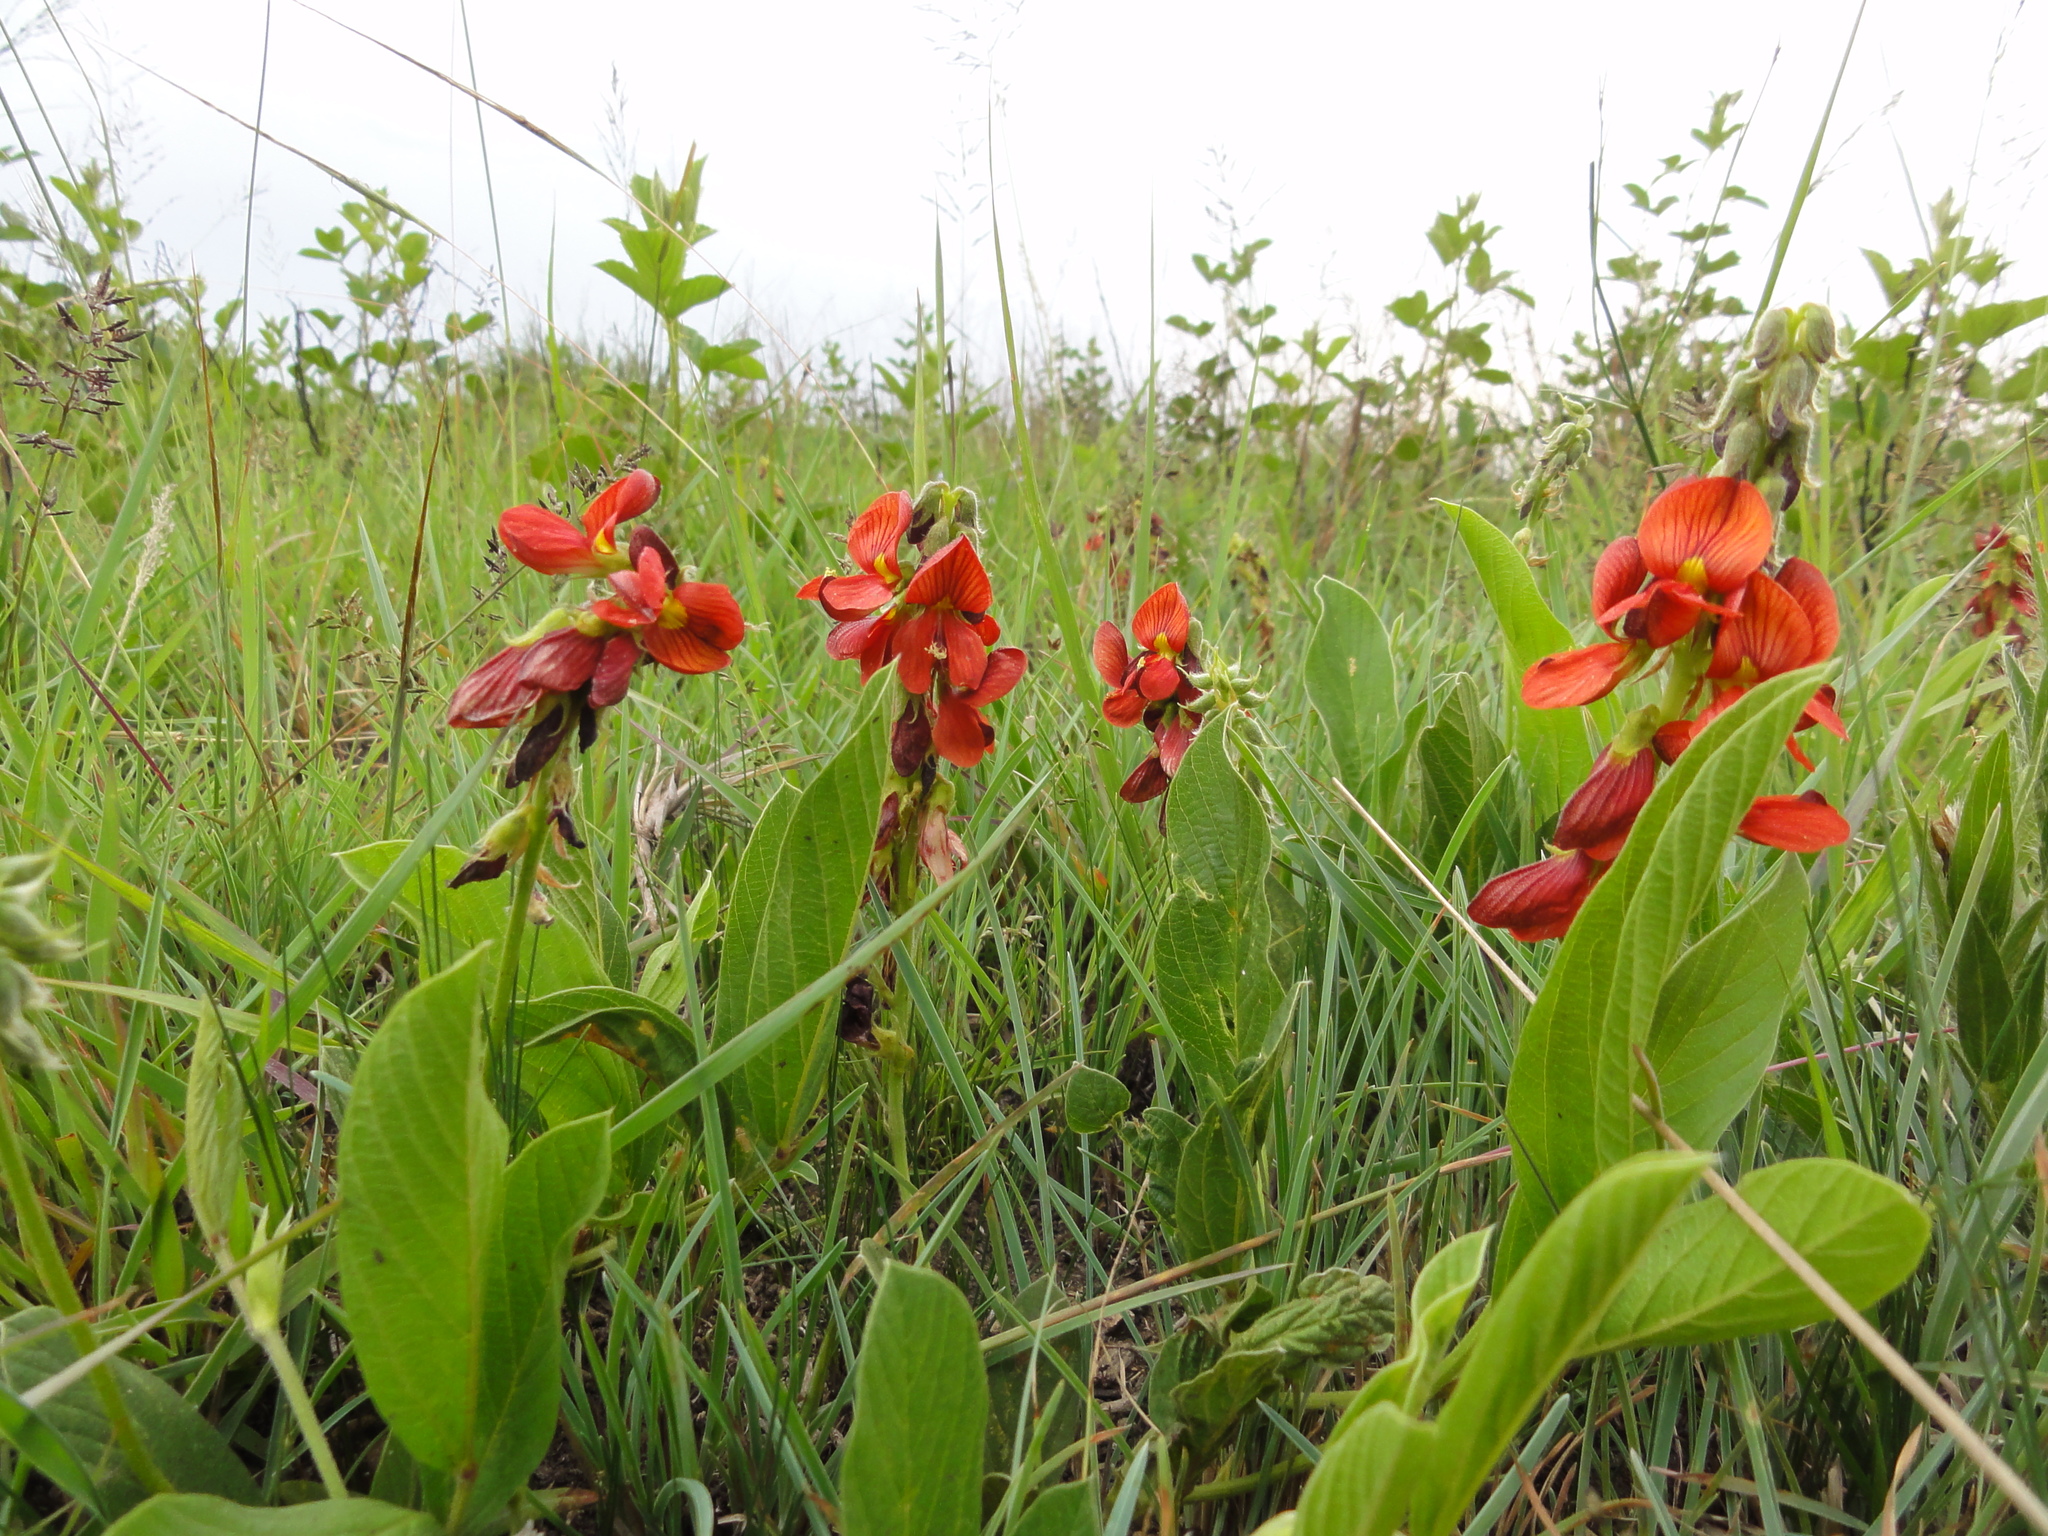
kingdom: Plantae
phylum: Tracheophyta
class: Magnoliopsida
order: Fabales
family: Fabaceae
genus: Eriosema
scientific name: Eriosema distinctum
